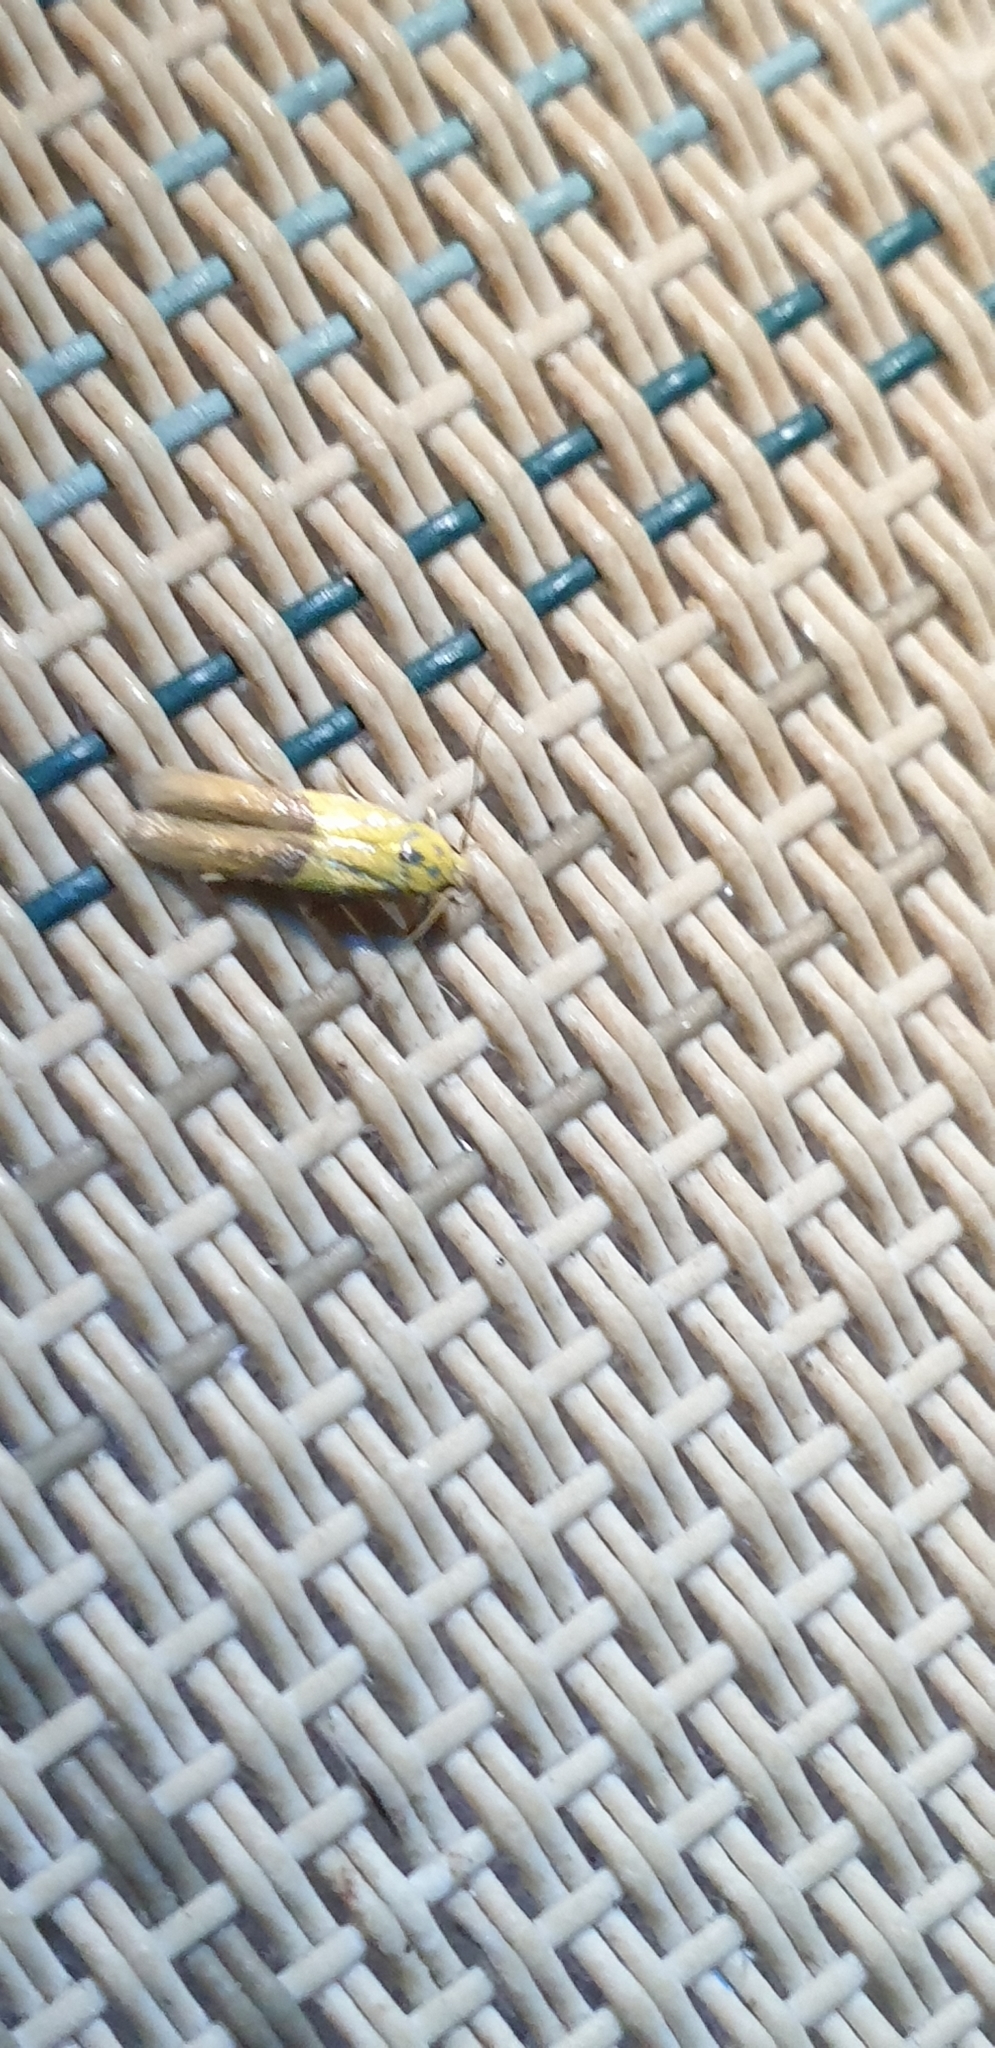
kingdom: Animalia
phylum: Arthropoda
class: Insecta
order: Lepidoptera
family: Stathmopodidae
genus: Stathmopoda
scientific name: Stathmopoda auriferella
